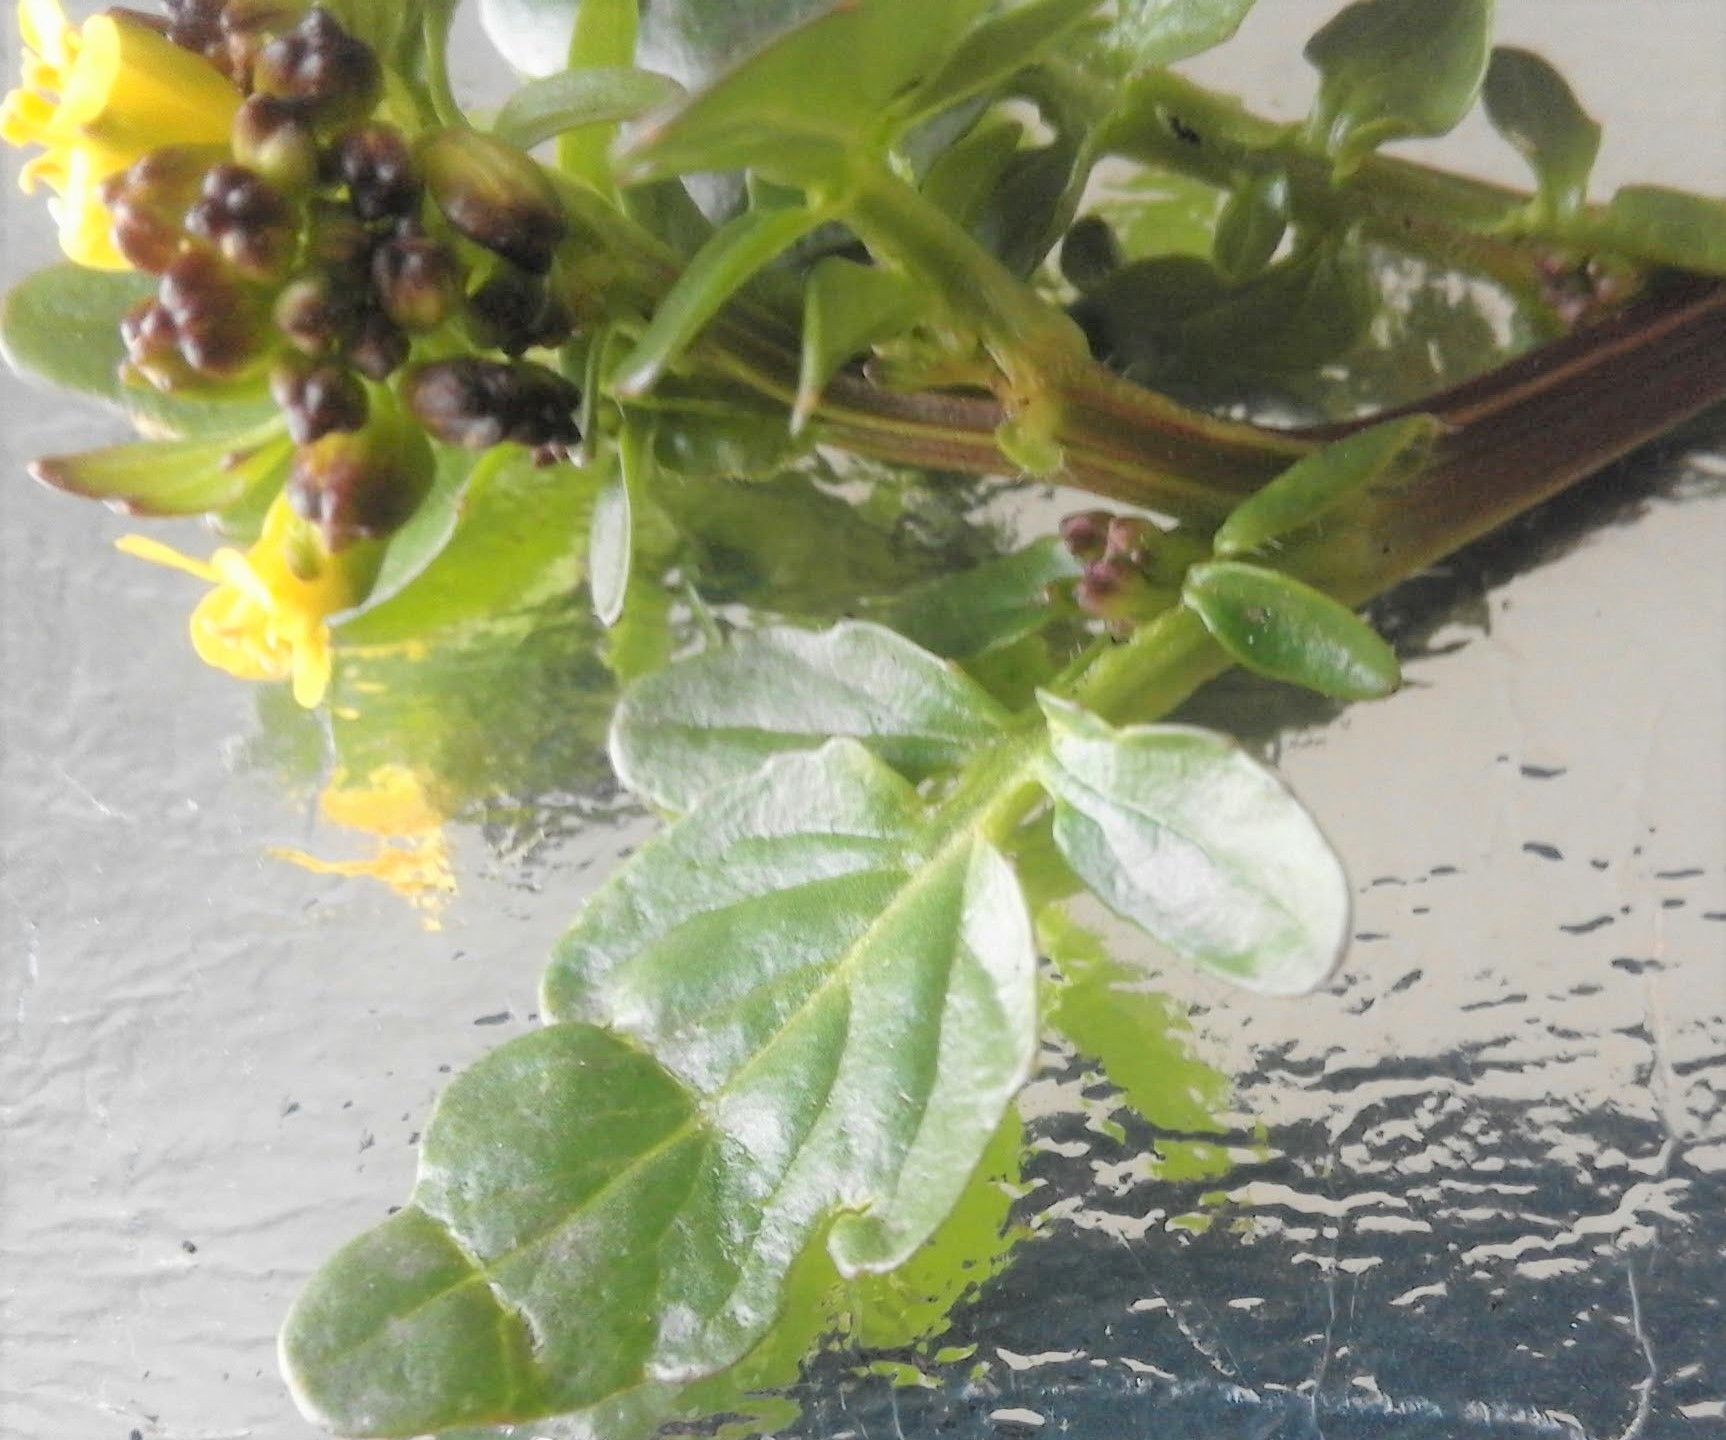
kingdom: Plantae
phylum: Tracheophyta
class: Magnoliopsida
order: Brassicales
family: Brassicaceae
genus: Barbarea
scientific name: Barbarea vulgaris
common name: Cressy-greens
